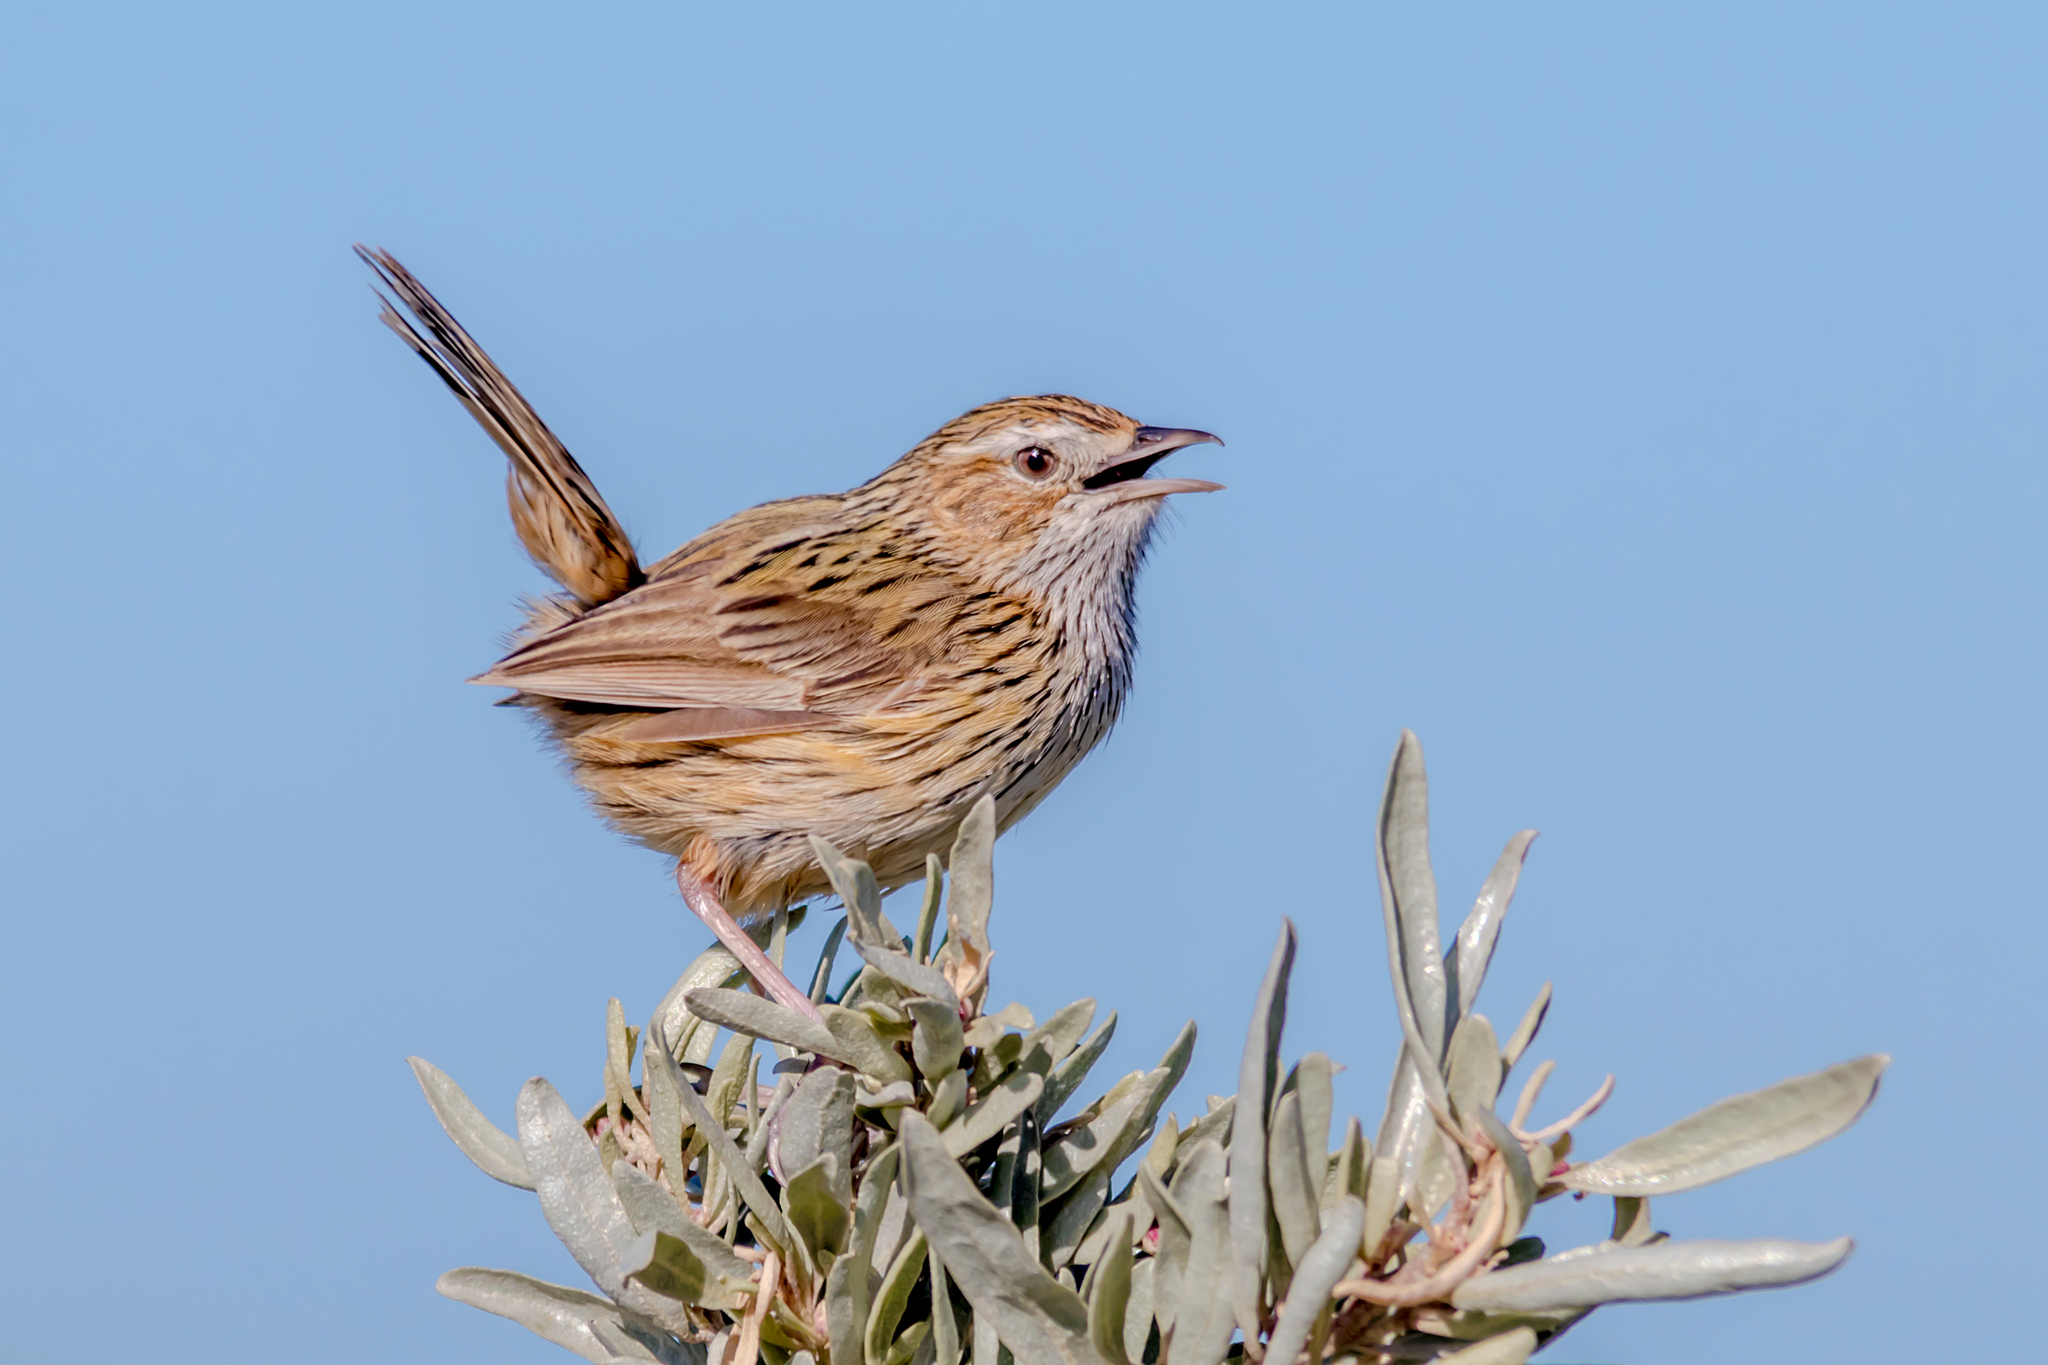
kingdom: Animalia
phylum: Chordata
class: Aves
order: Passeriformes
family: Acanthizidae
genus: Calamanthus
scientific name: Calamanthus fuliginosus
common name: Striated fieldwren
